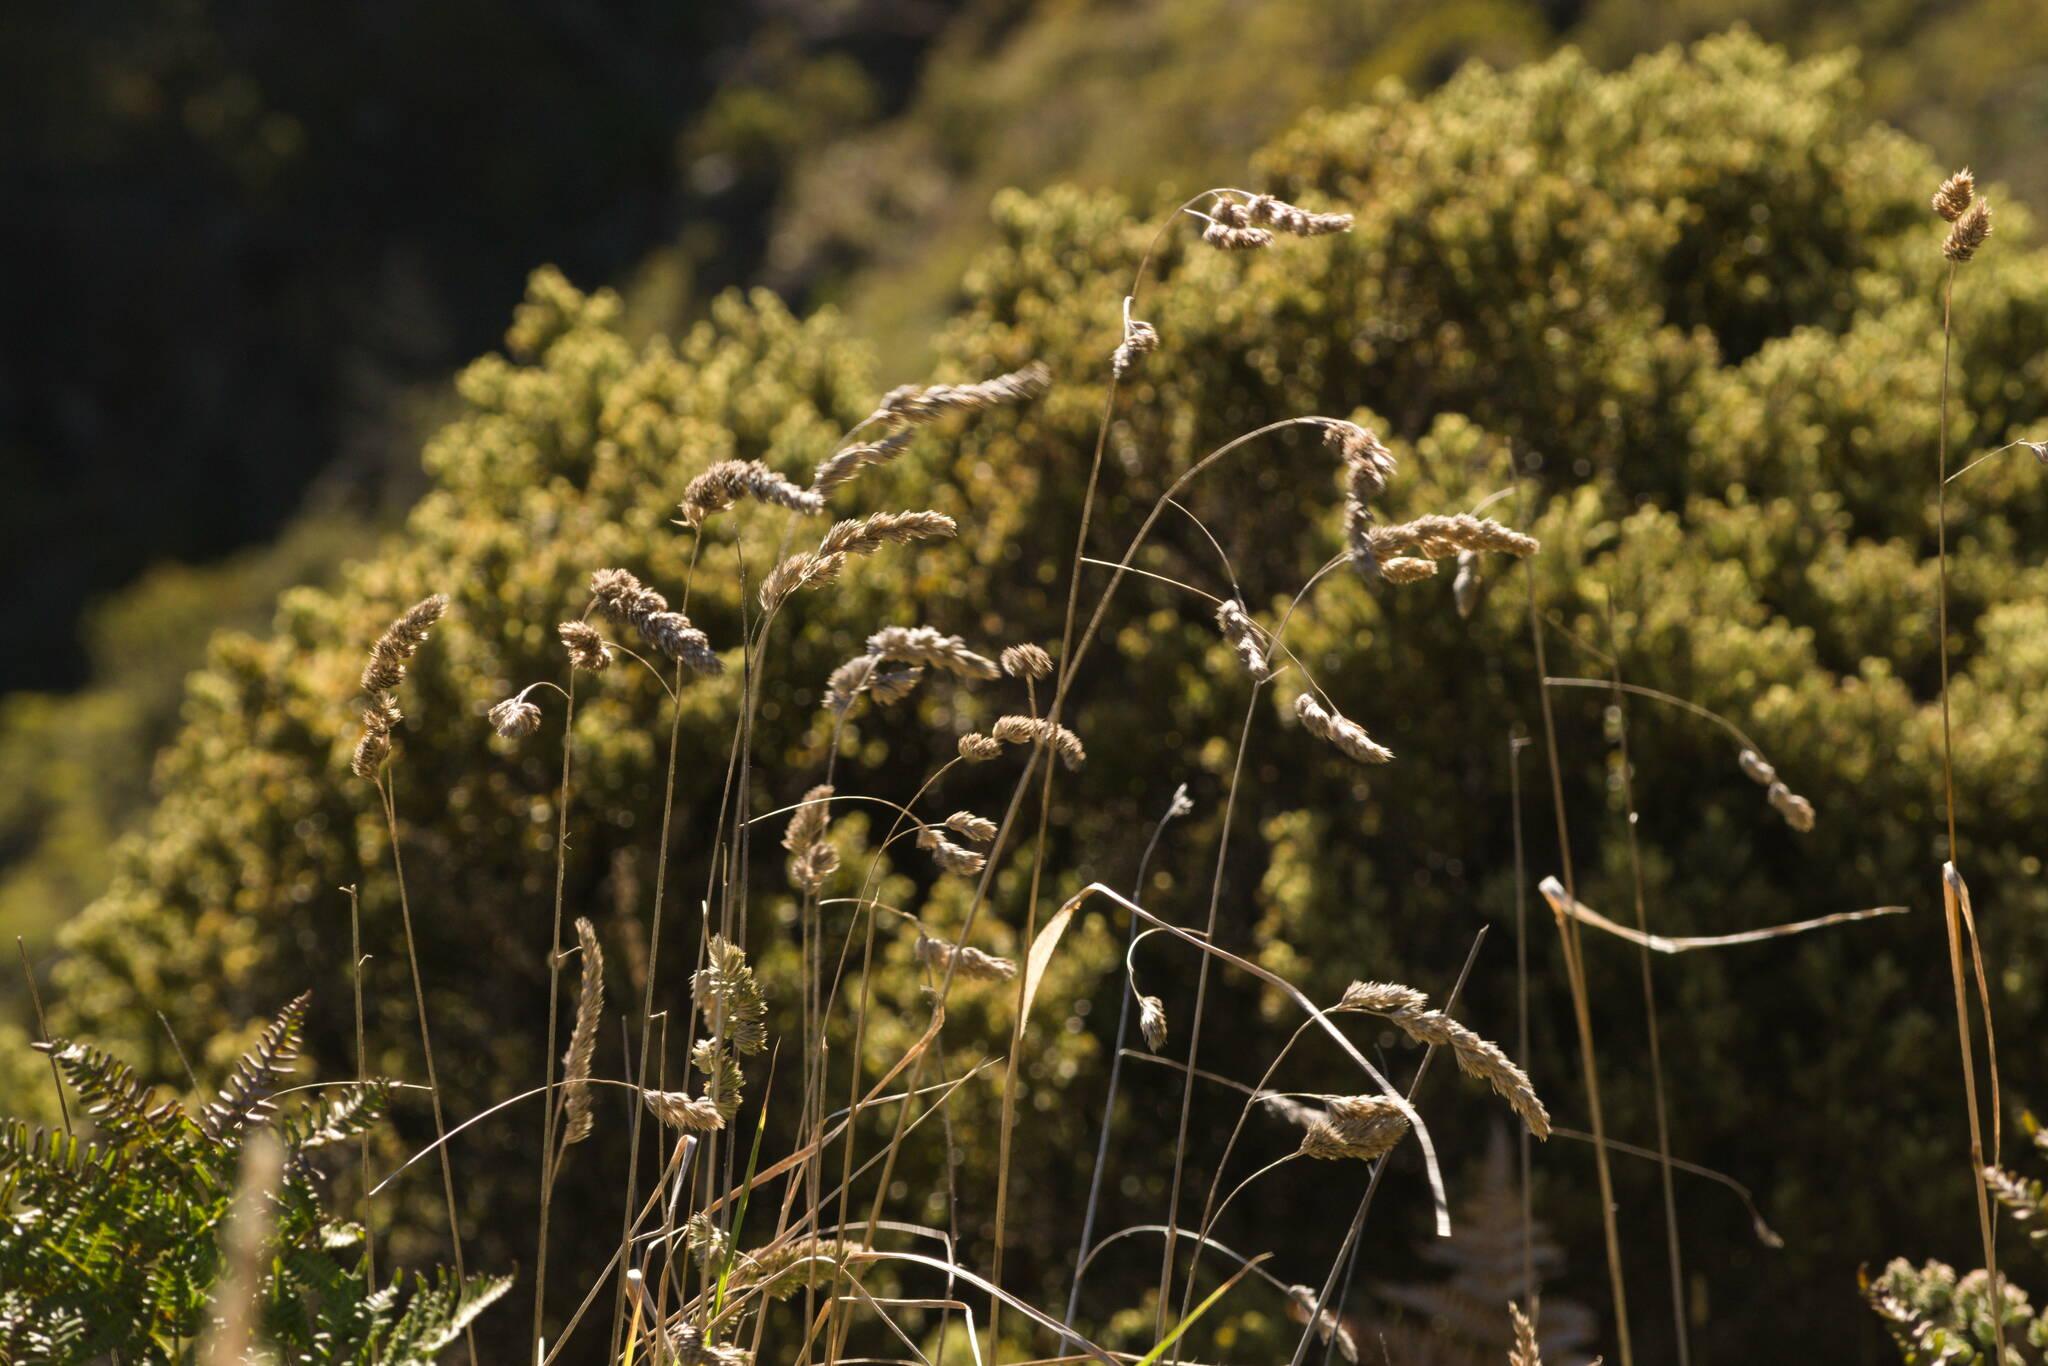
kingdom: Plantae
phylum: Tracheophyta
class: Liliopsida
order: Poales
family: Poaceae
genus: Dactylis
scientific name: Dactylis glomerata
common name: Orchardgrass
